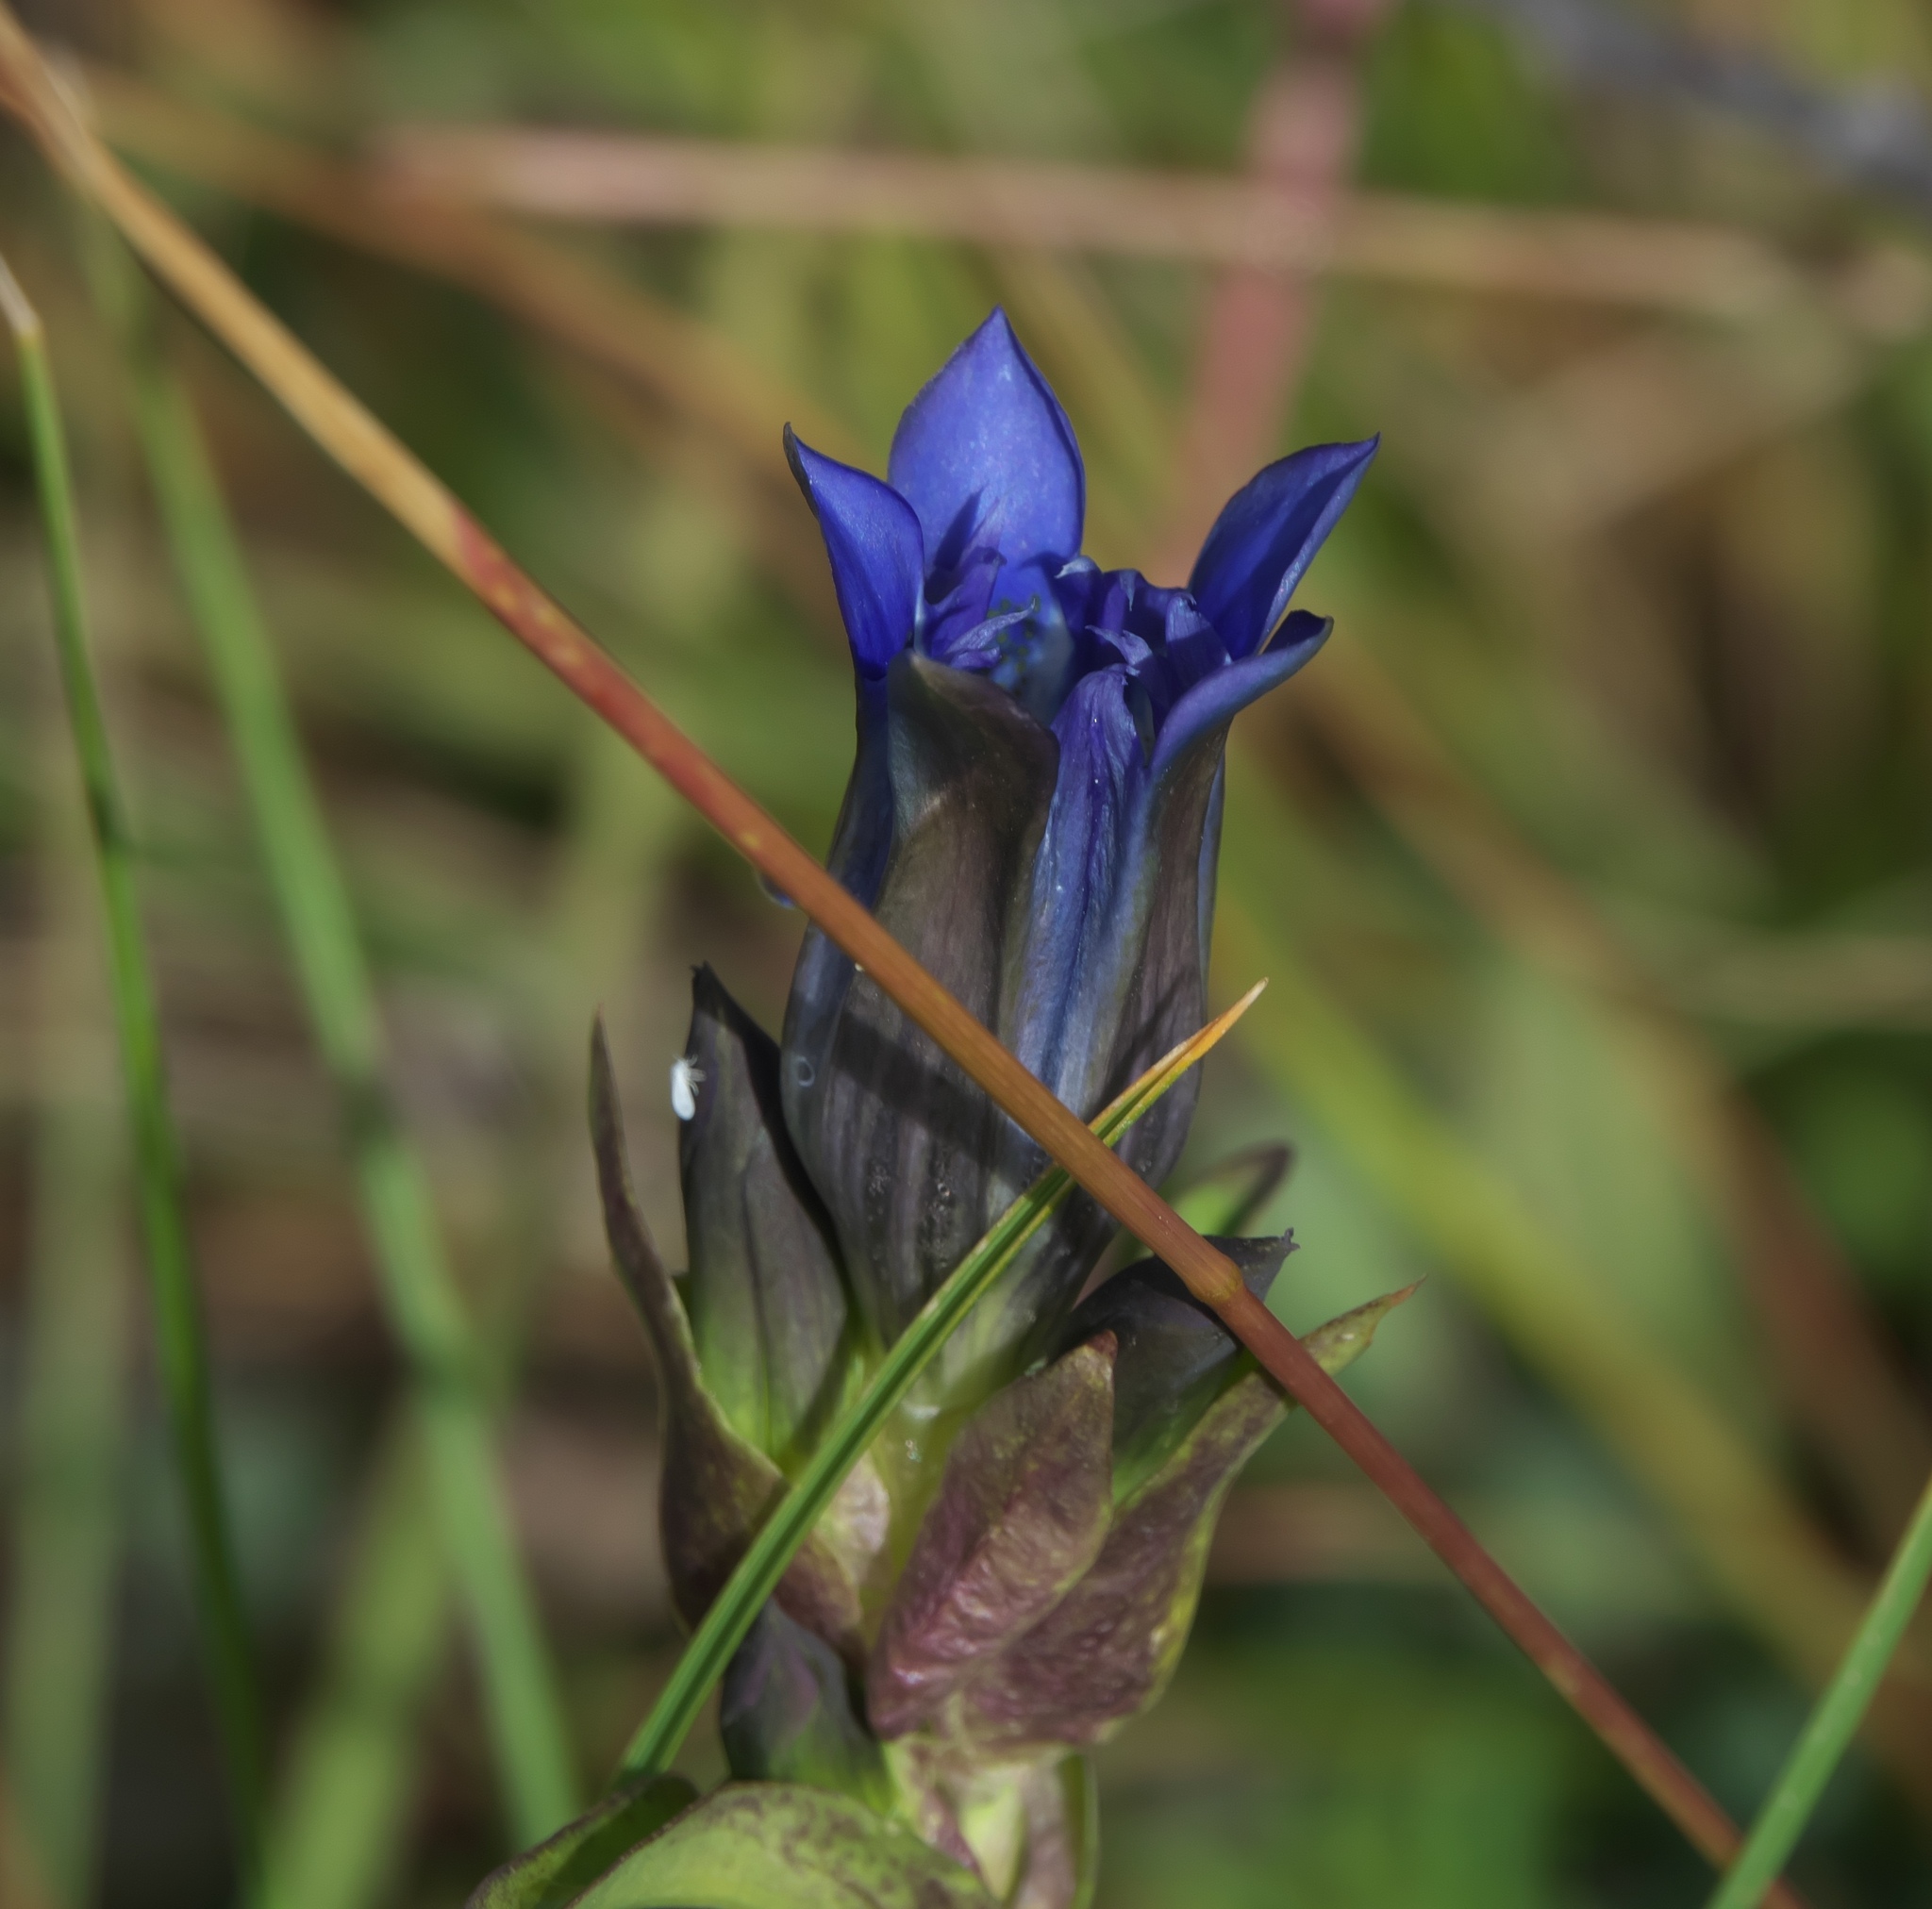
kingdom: Plantae
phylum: Tracheophyta
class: Magnoliopsida
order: Gentianales
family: Gentianaceae
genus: Gentiana
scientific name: Gentiana parryi
